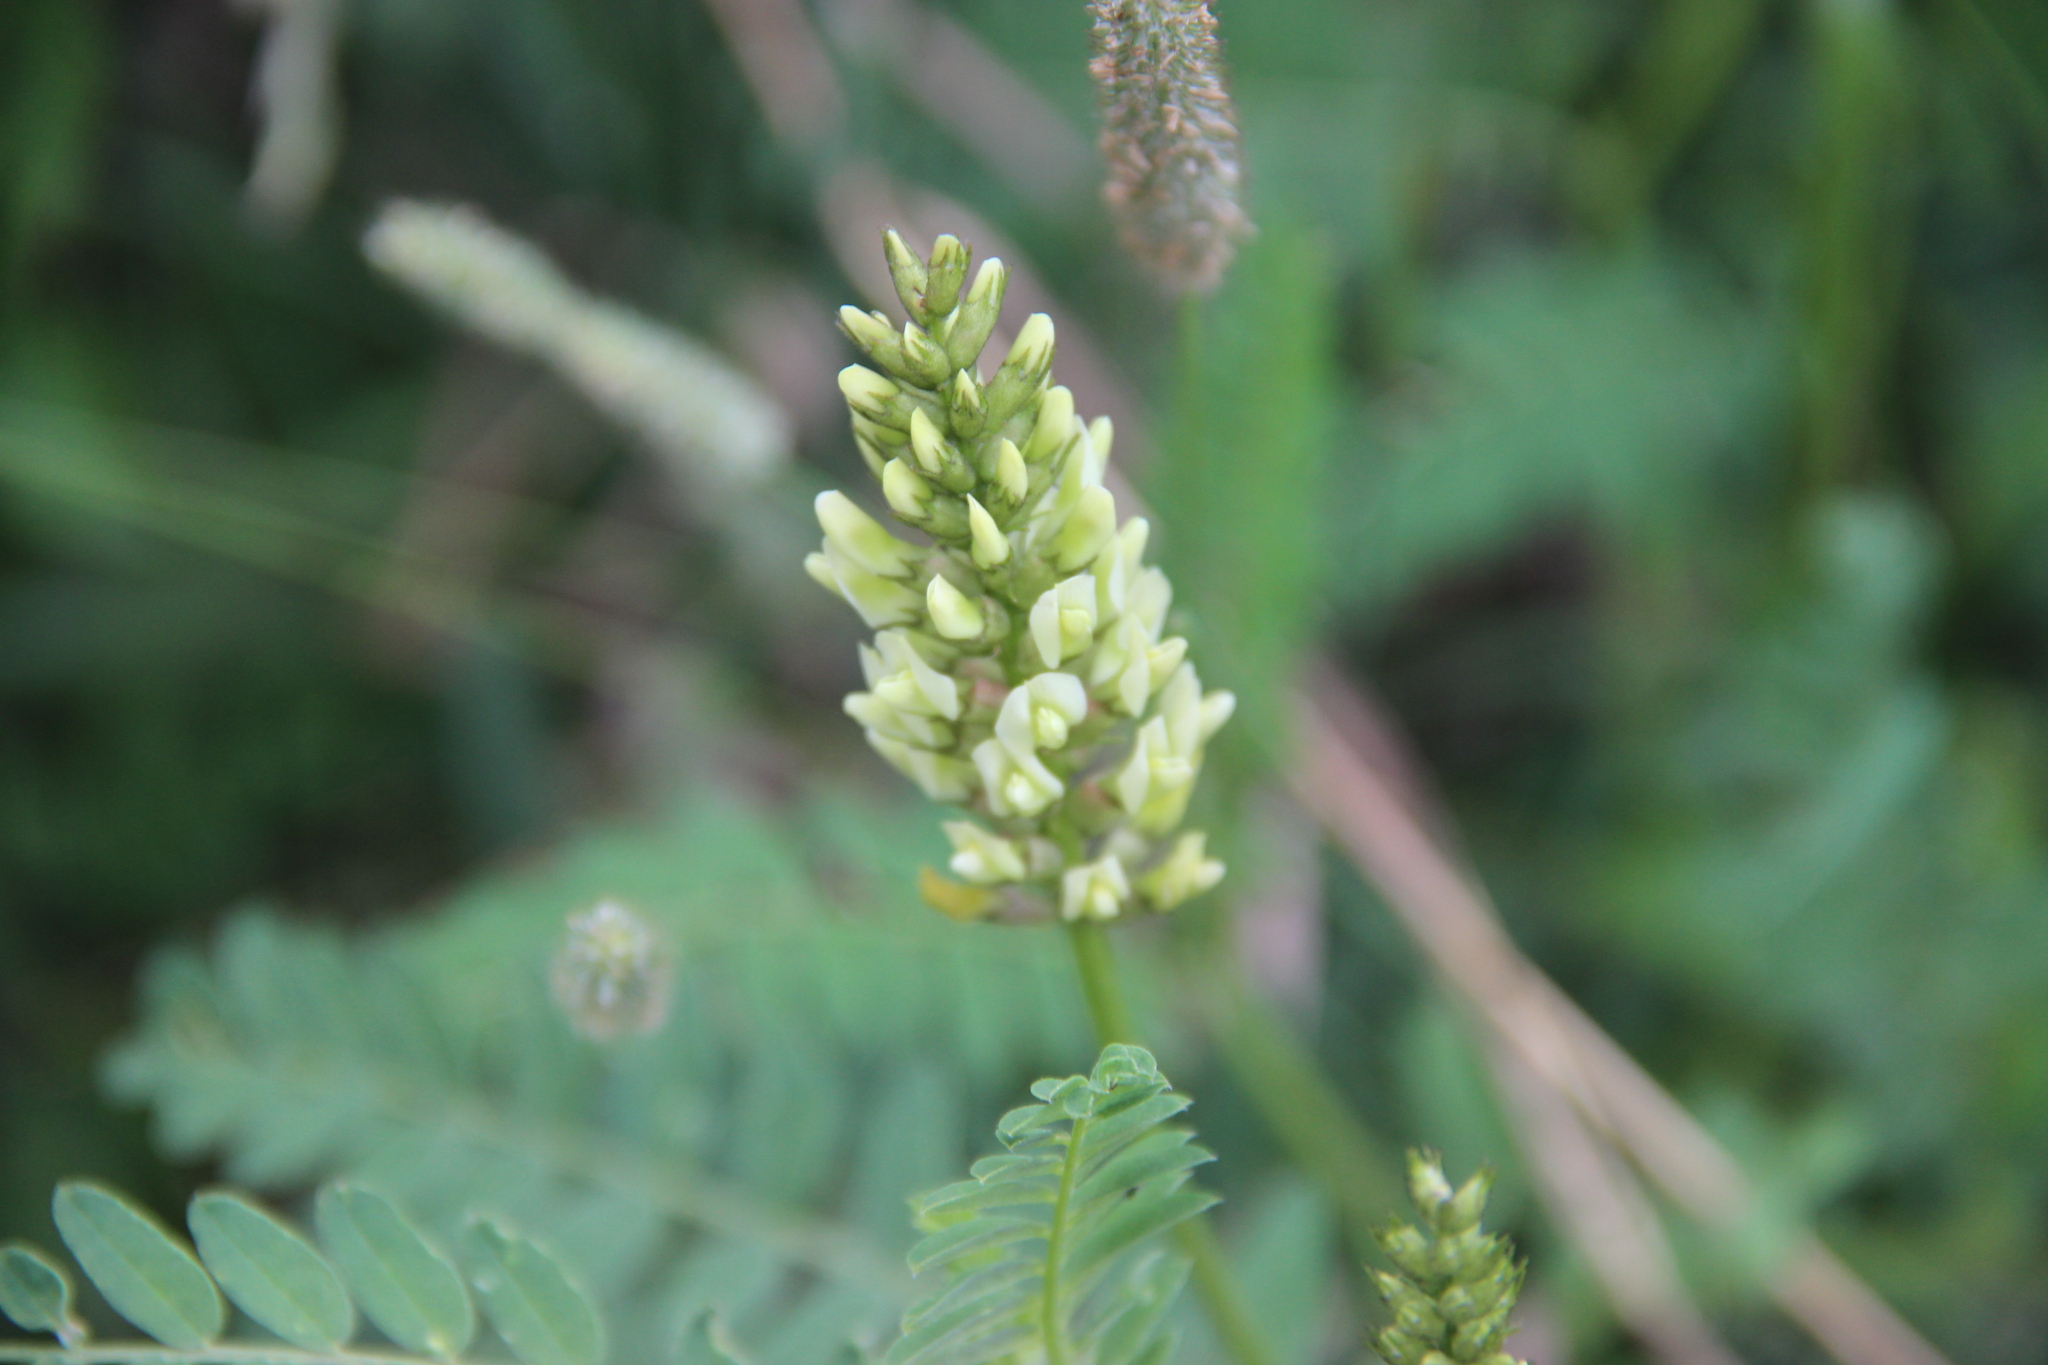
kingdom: Plantae
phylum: Tracheophyta
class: Magnoliopsida
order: Fabales
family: Fabaceae
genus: Astragalus
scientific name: Astragalus cicer
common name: Chick-pea milk-vetch
